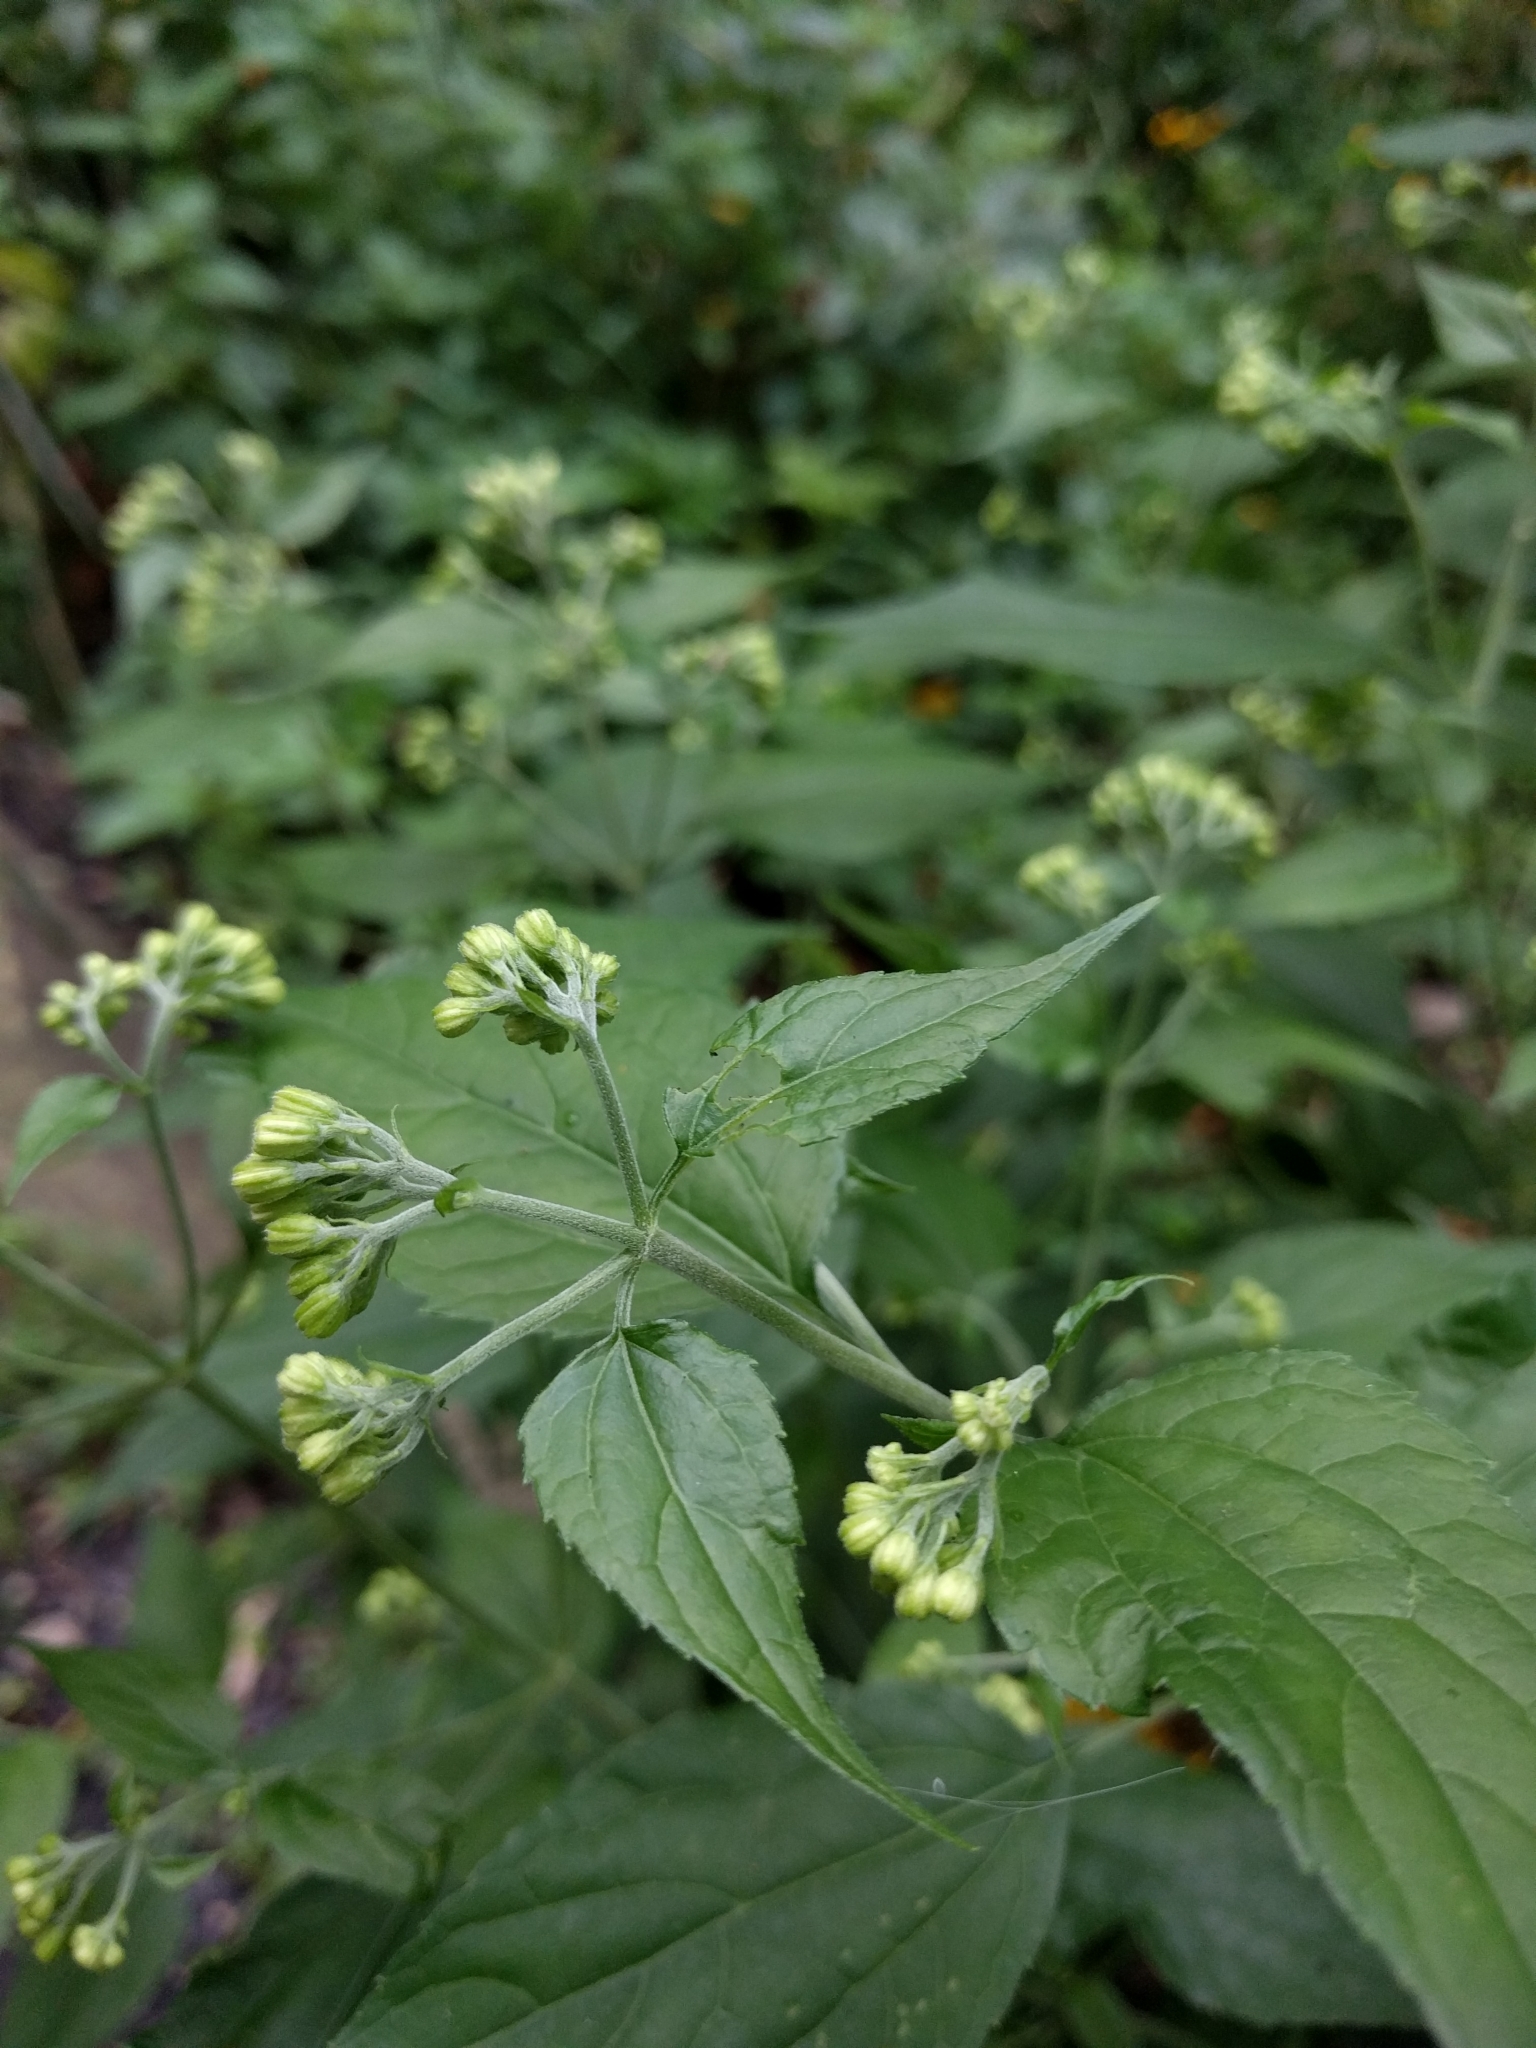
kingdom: Plantae
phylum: Tracheophyta
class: Magnoliopsida
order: Asterales
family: Asteraceae
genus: Ageratina
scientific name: Ageratina altissima
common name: White snakeroot
